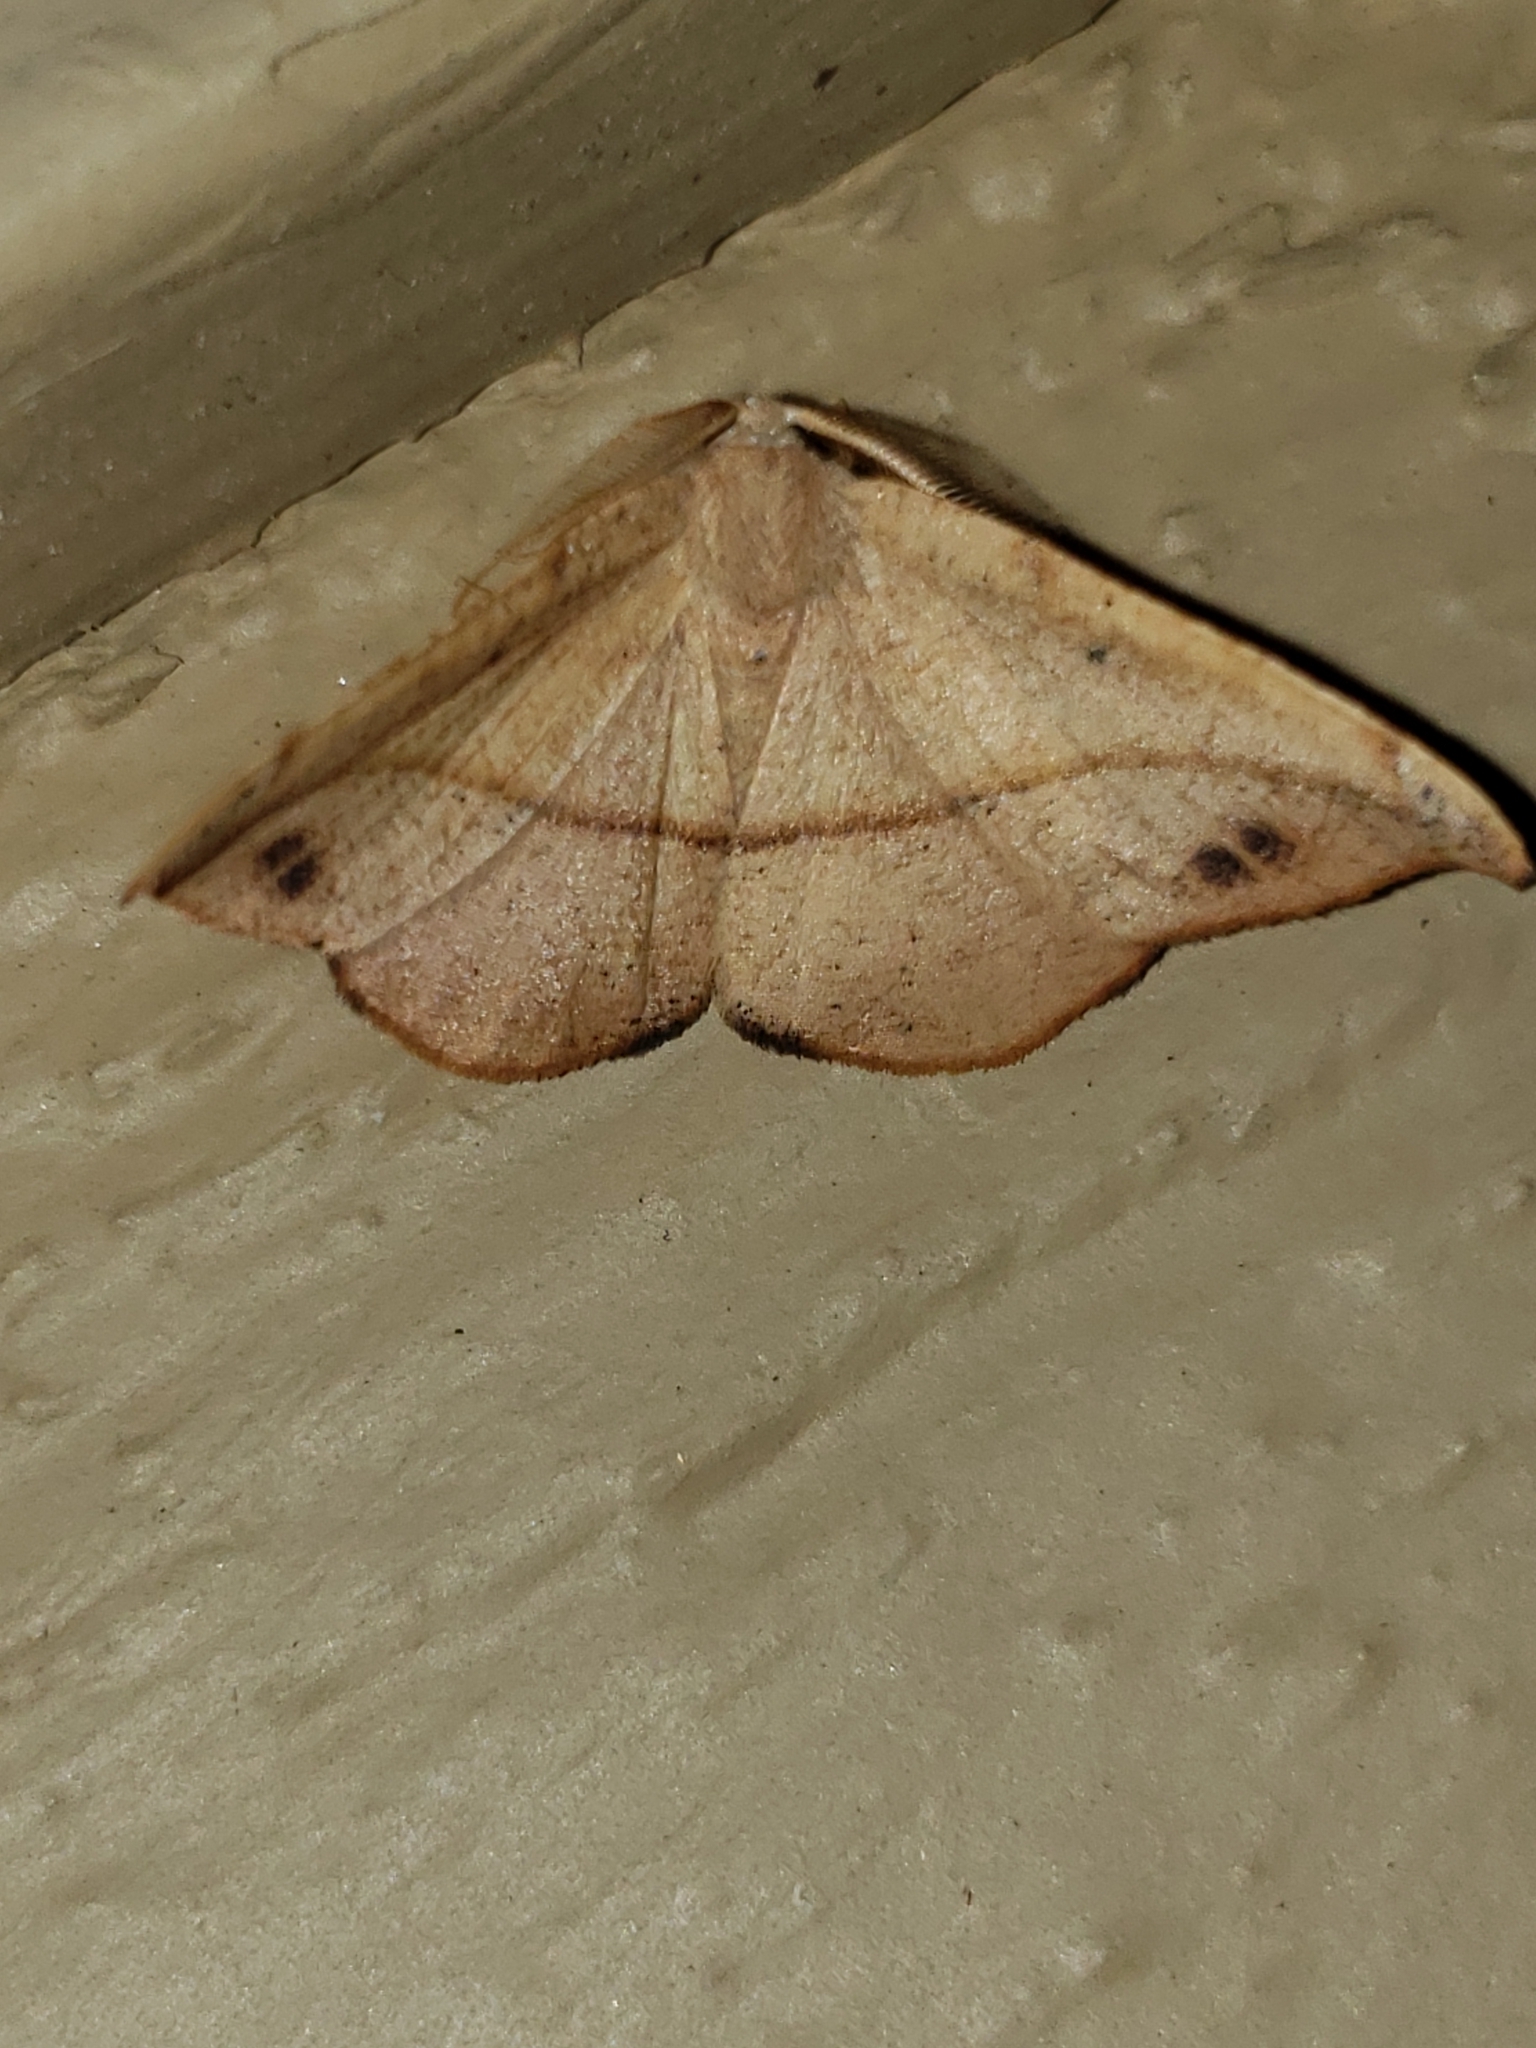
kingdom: Animalia
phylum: Arthropoda
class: Insecta
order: Lepidoptera
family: Geometridae
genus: Patalene
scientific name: Patalene olyzonaria
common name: Juniper geometer moth
